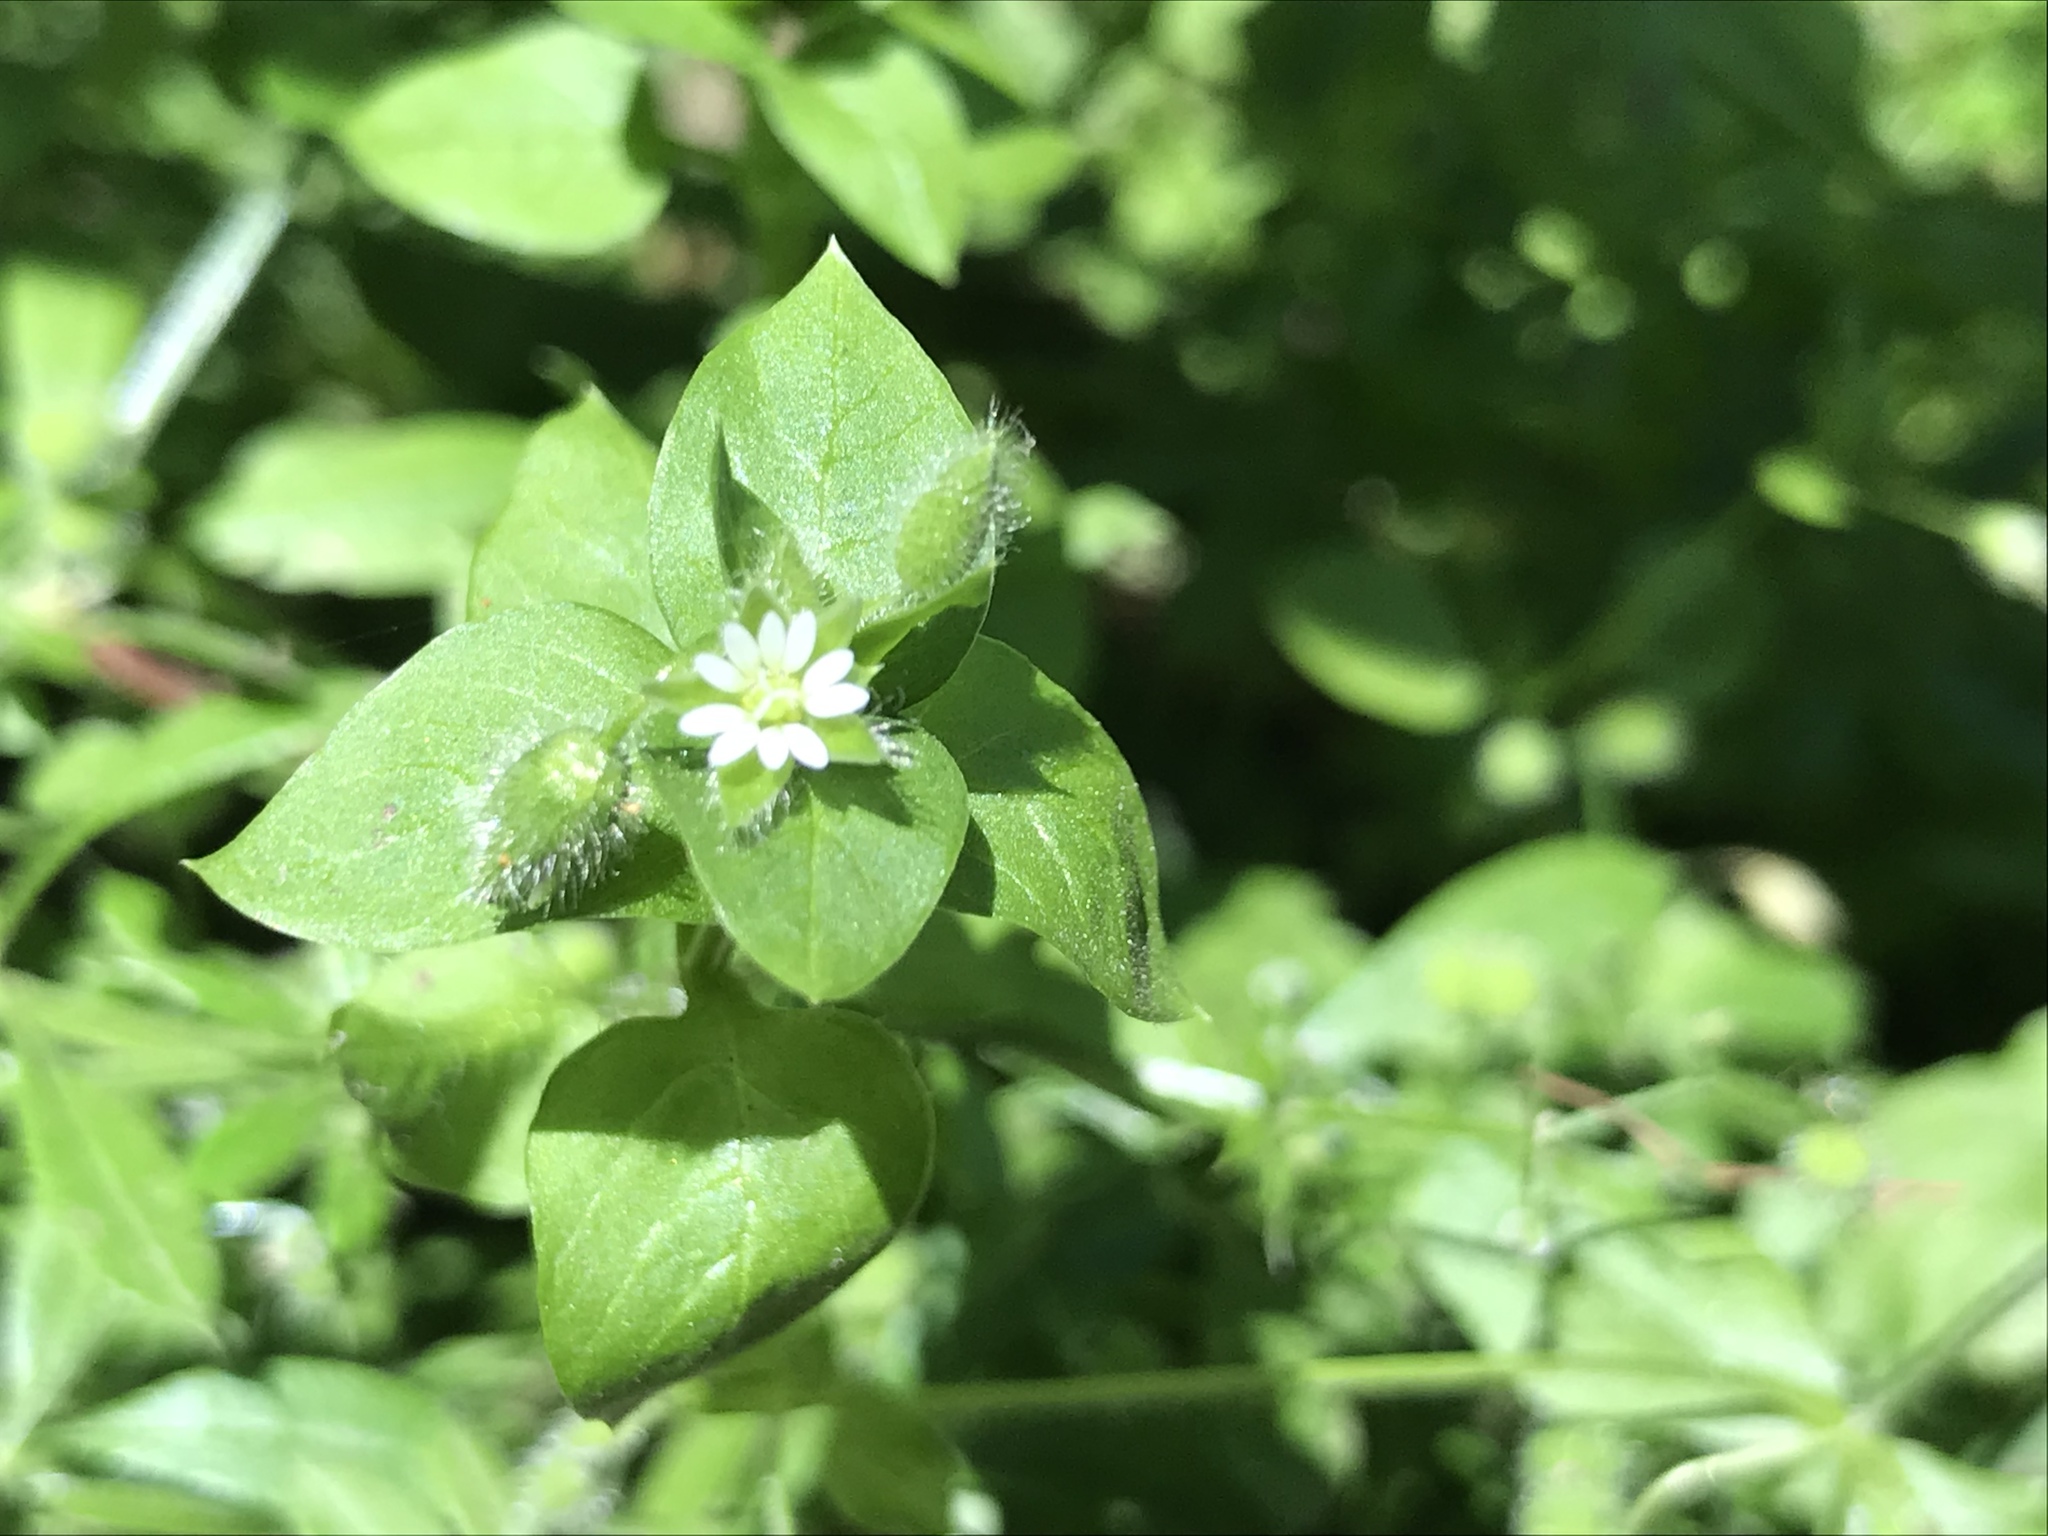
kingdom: Plantae
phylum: Tracheophyta
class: Magnoliopsida
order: Caryophyllales
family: Caryophyllaceae
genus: Stellaria
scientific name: Stellaria media
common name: Common chickweed
